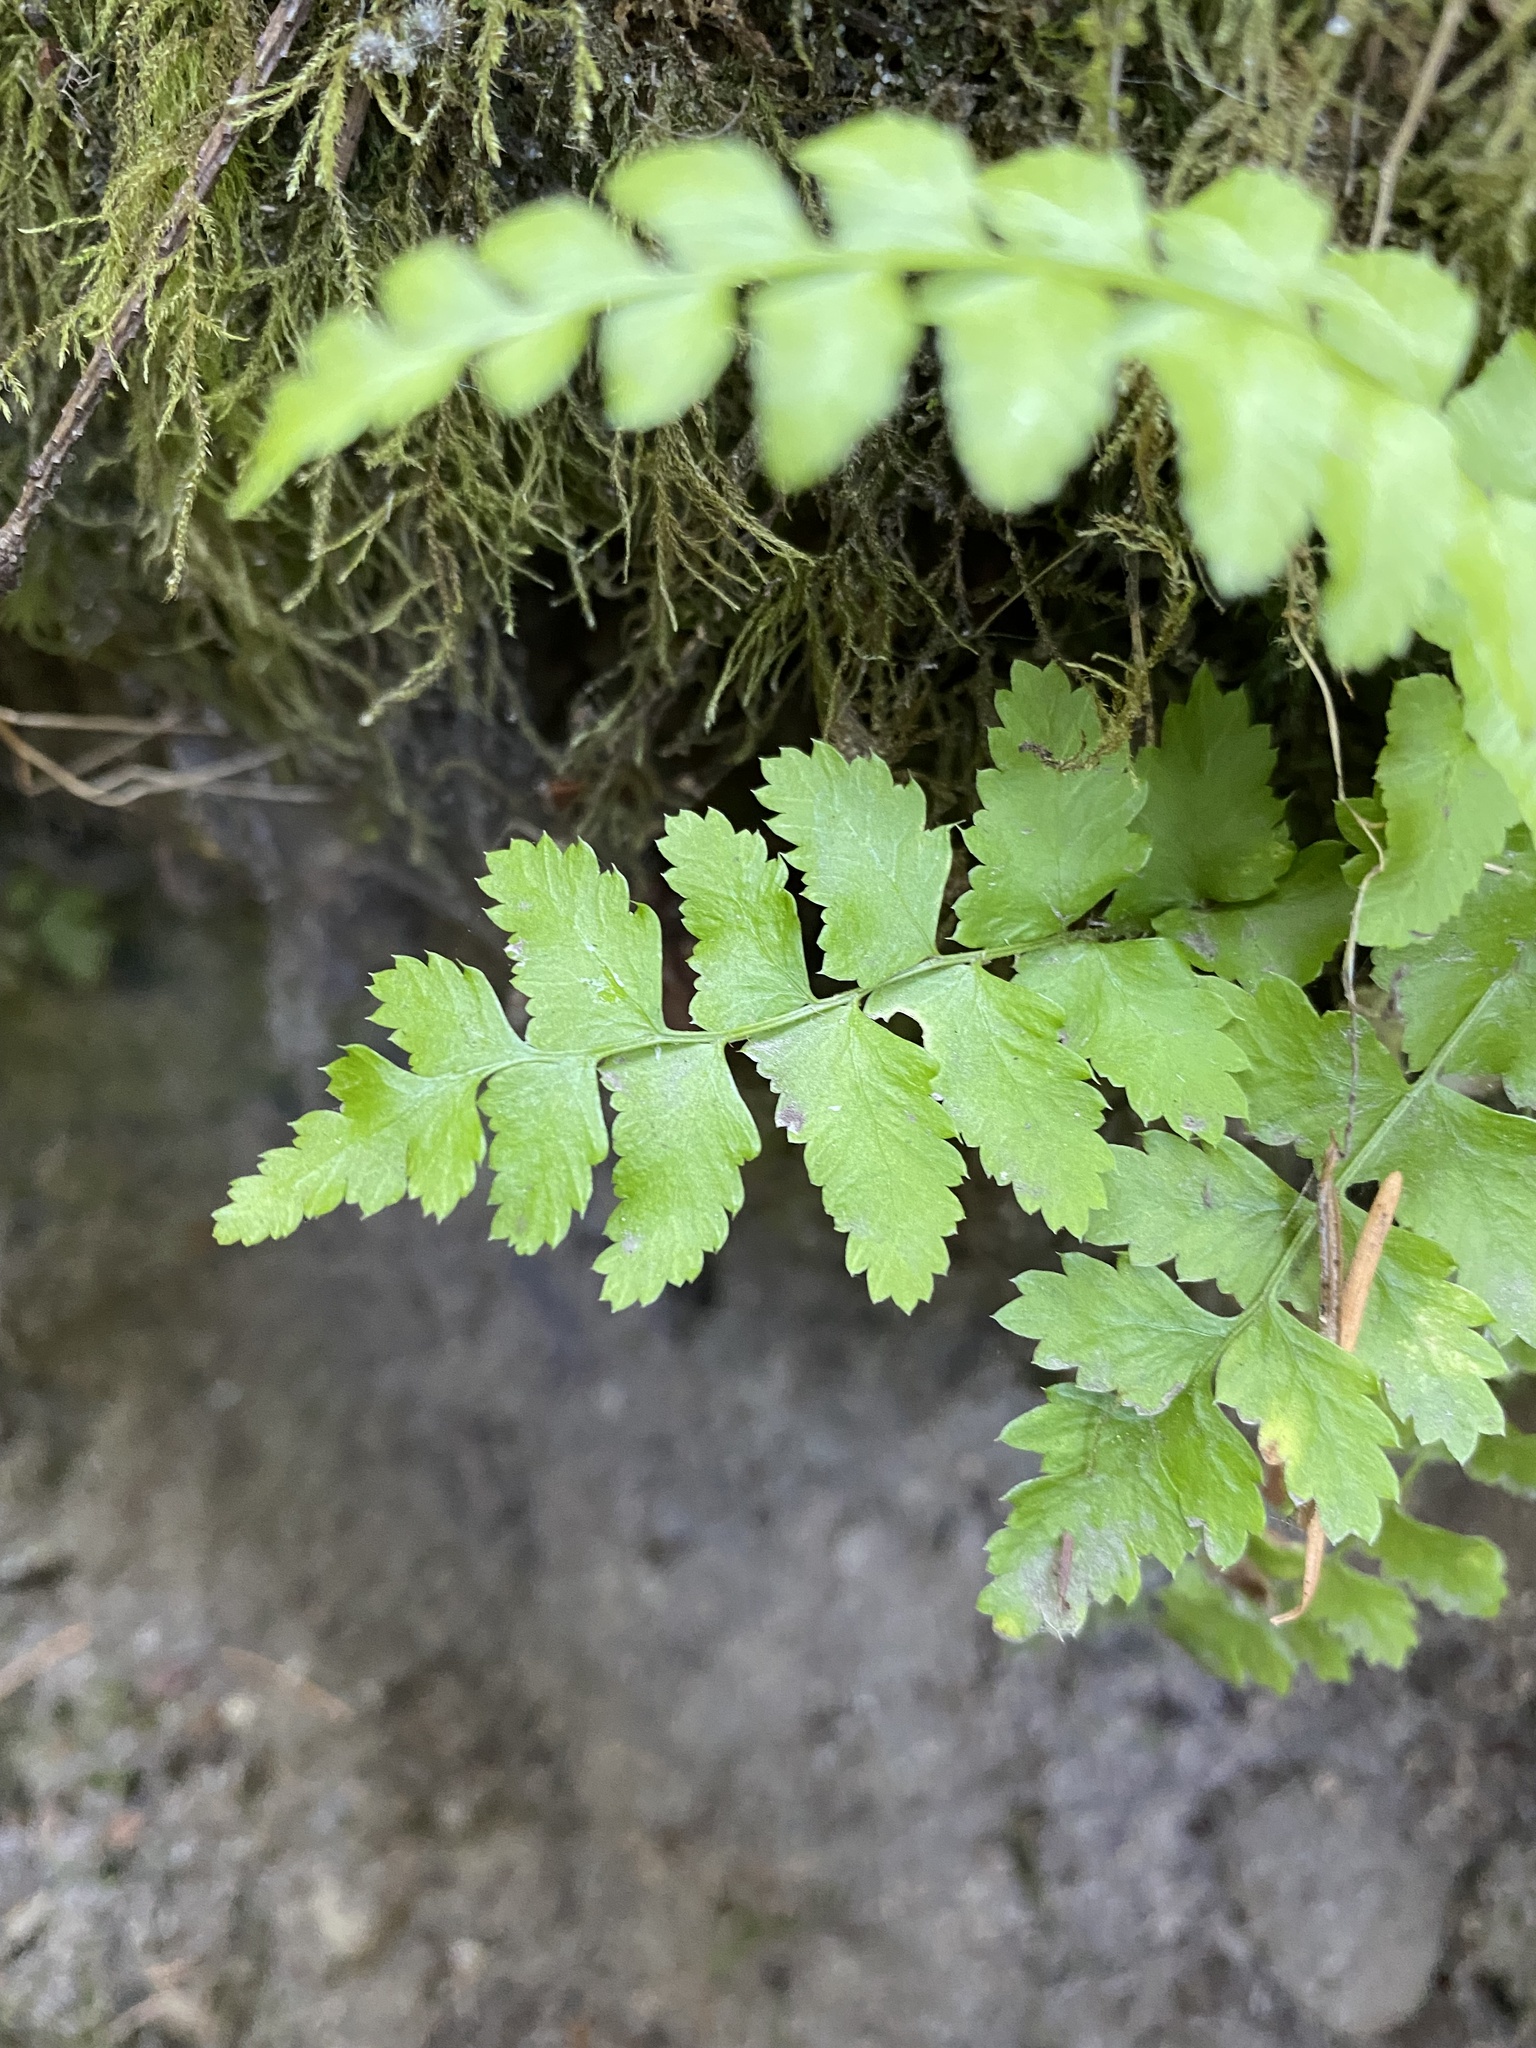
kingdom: Plantae
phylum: Tracheophyta
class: Polypodiopsida
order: Polypodiales
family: Dryopteridaceae
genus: Polystichum
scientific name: Polystichum munitum
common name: Western sword-fern
